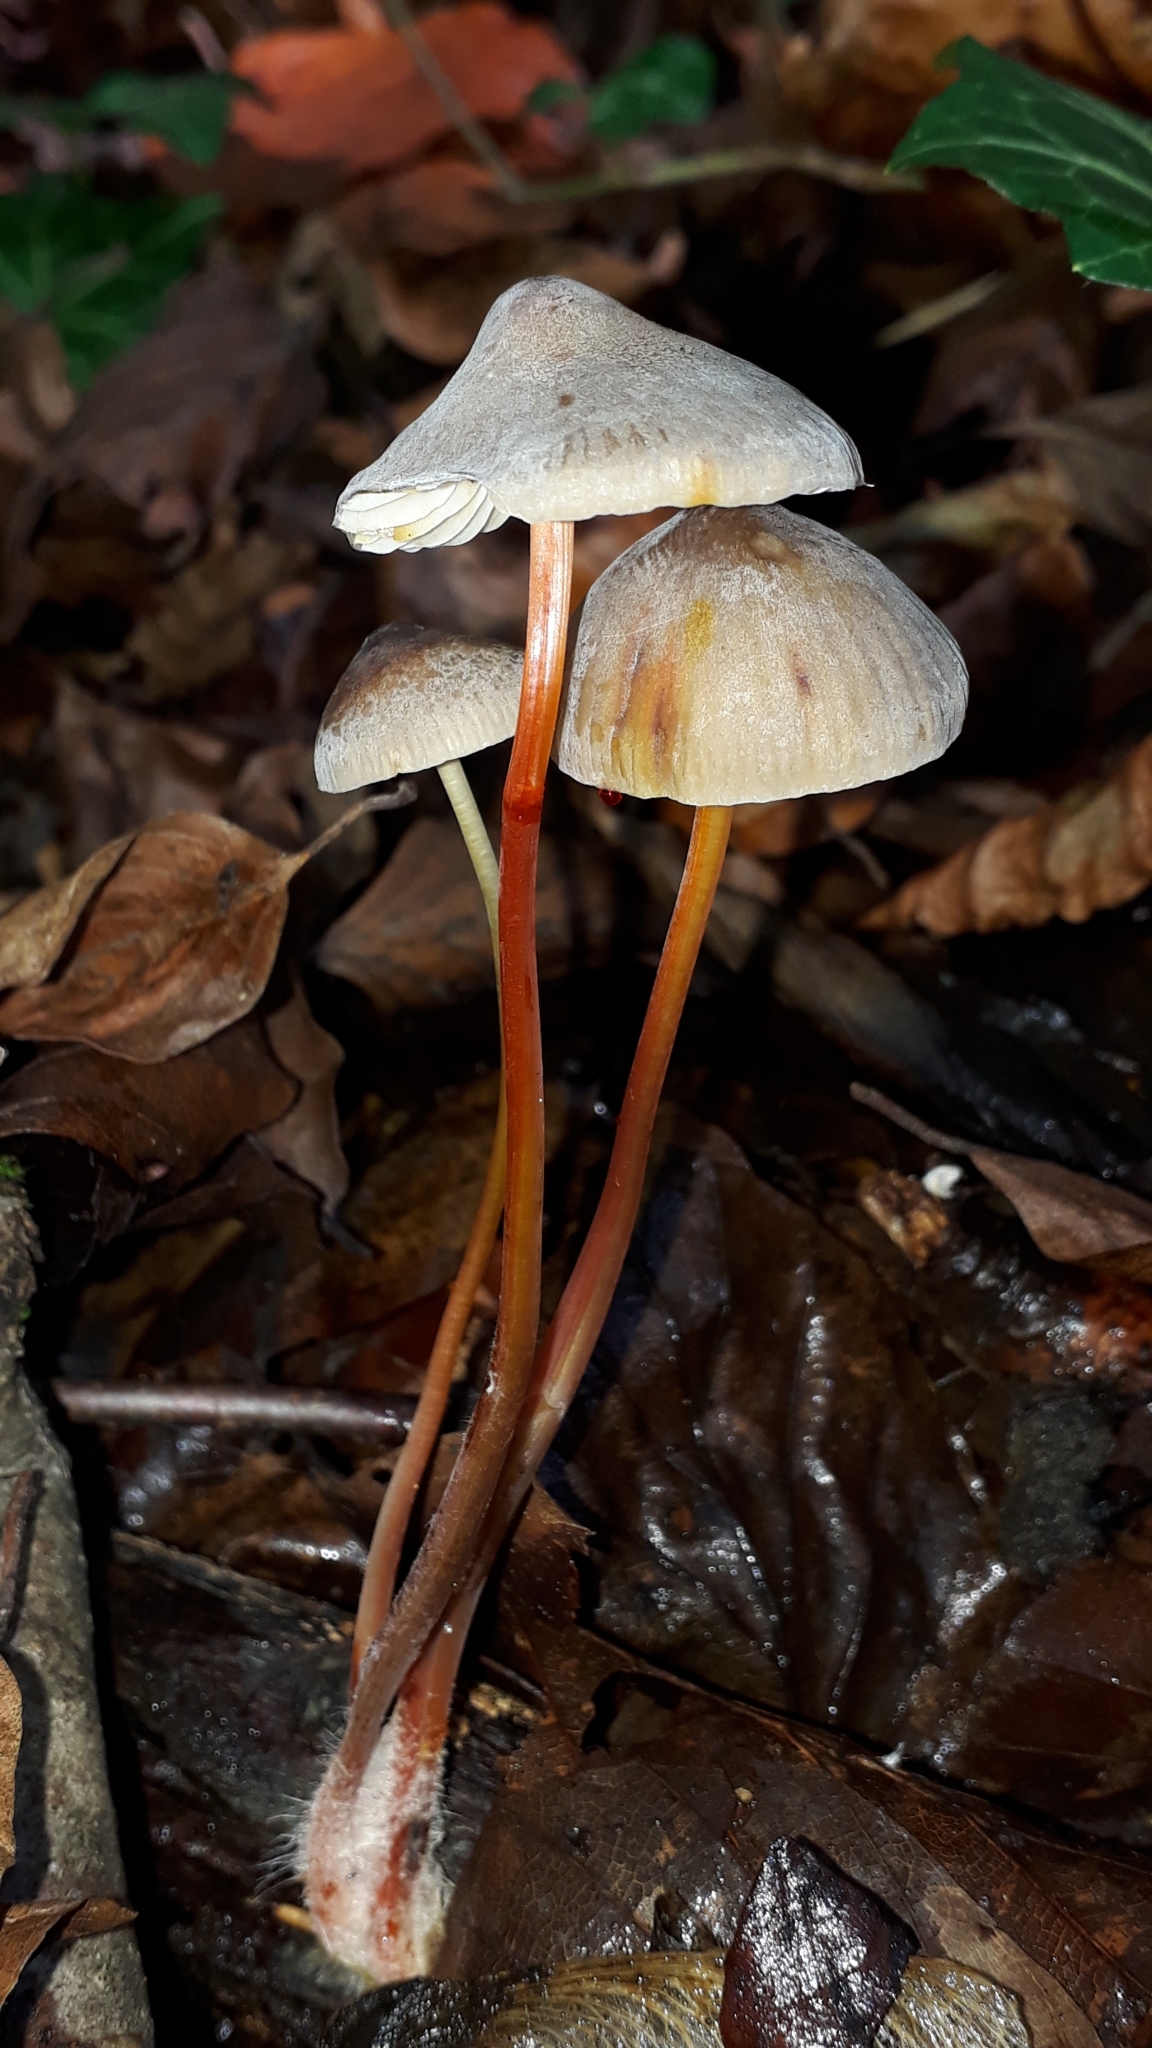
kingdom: Fungi
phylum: Basidiomycota
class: Agaricomycetes
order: Agaricales
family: Mycenaceae
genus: Mycena
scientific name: Mycena crocata
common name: Saffrondrop bonnet
